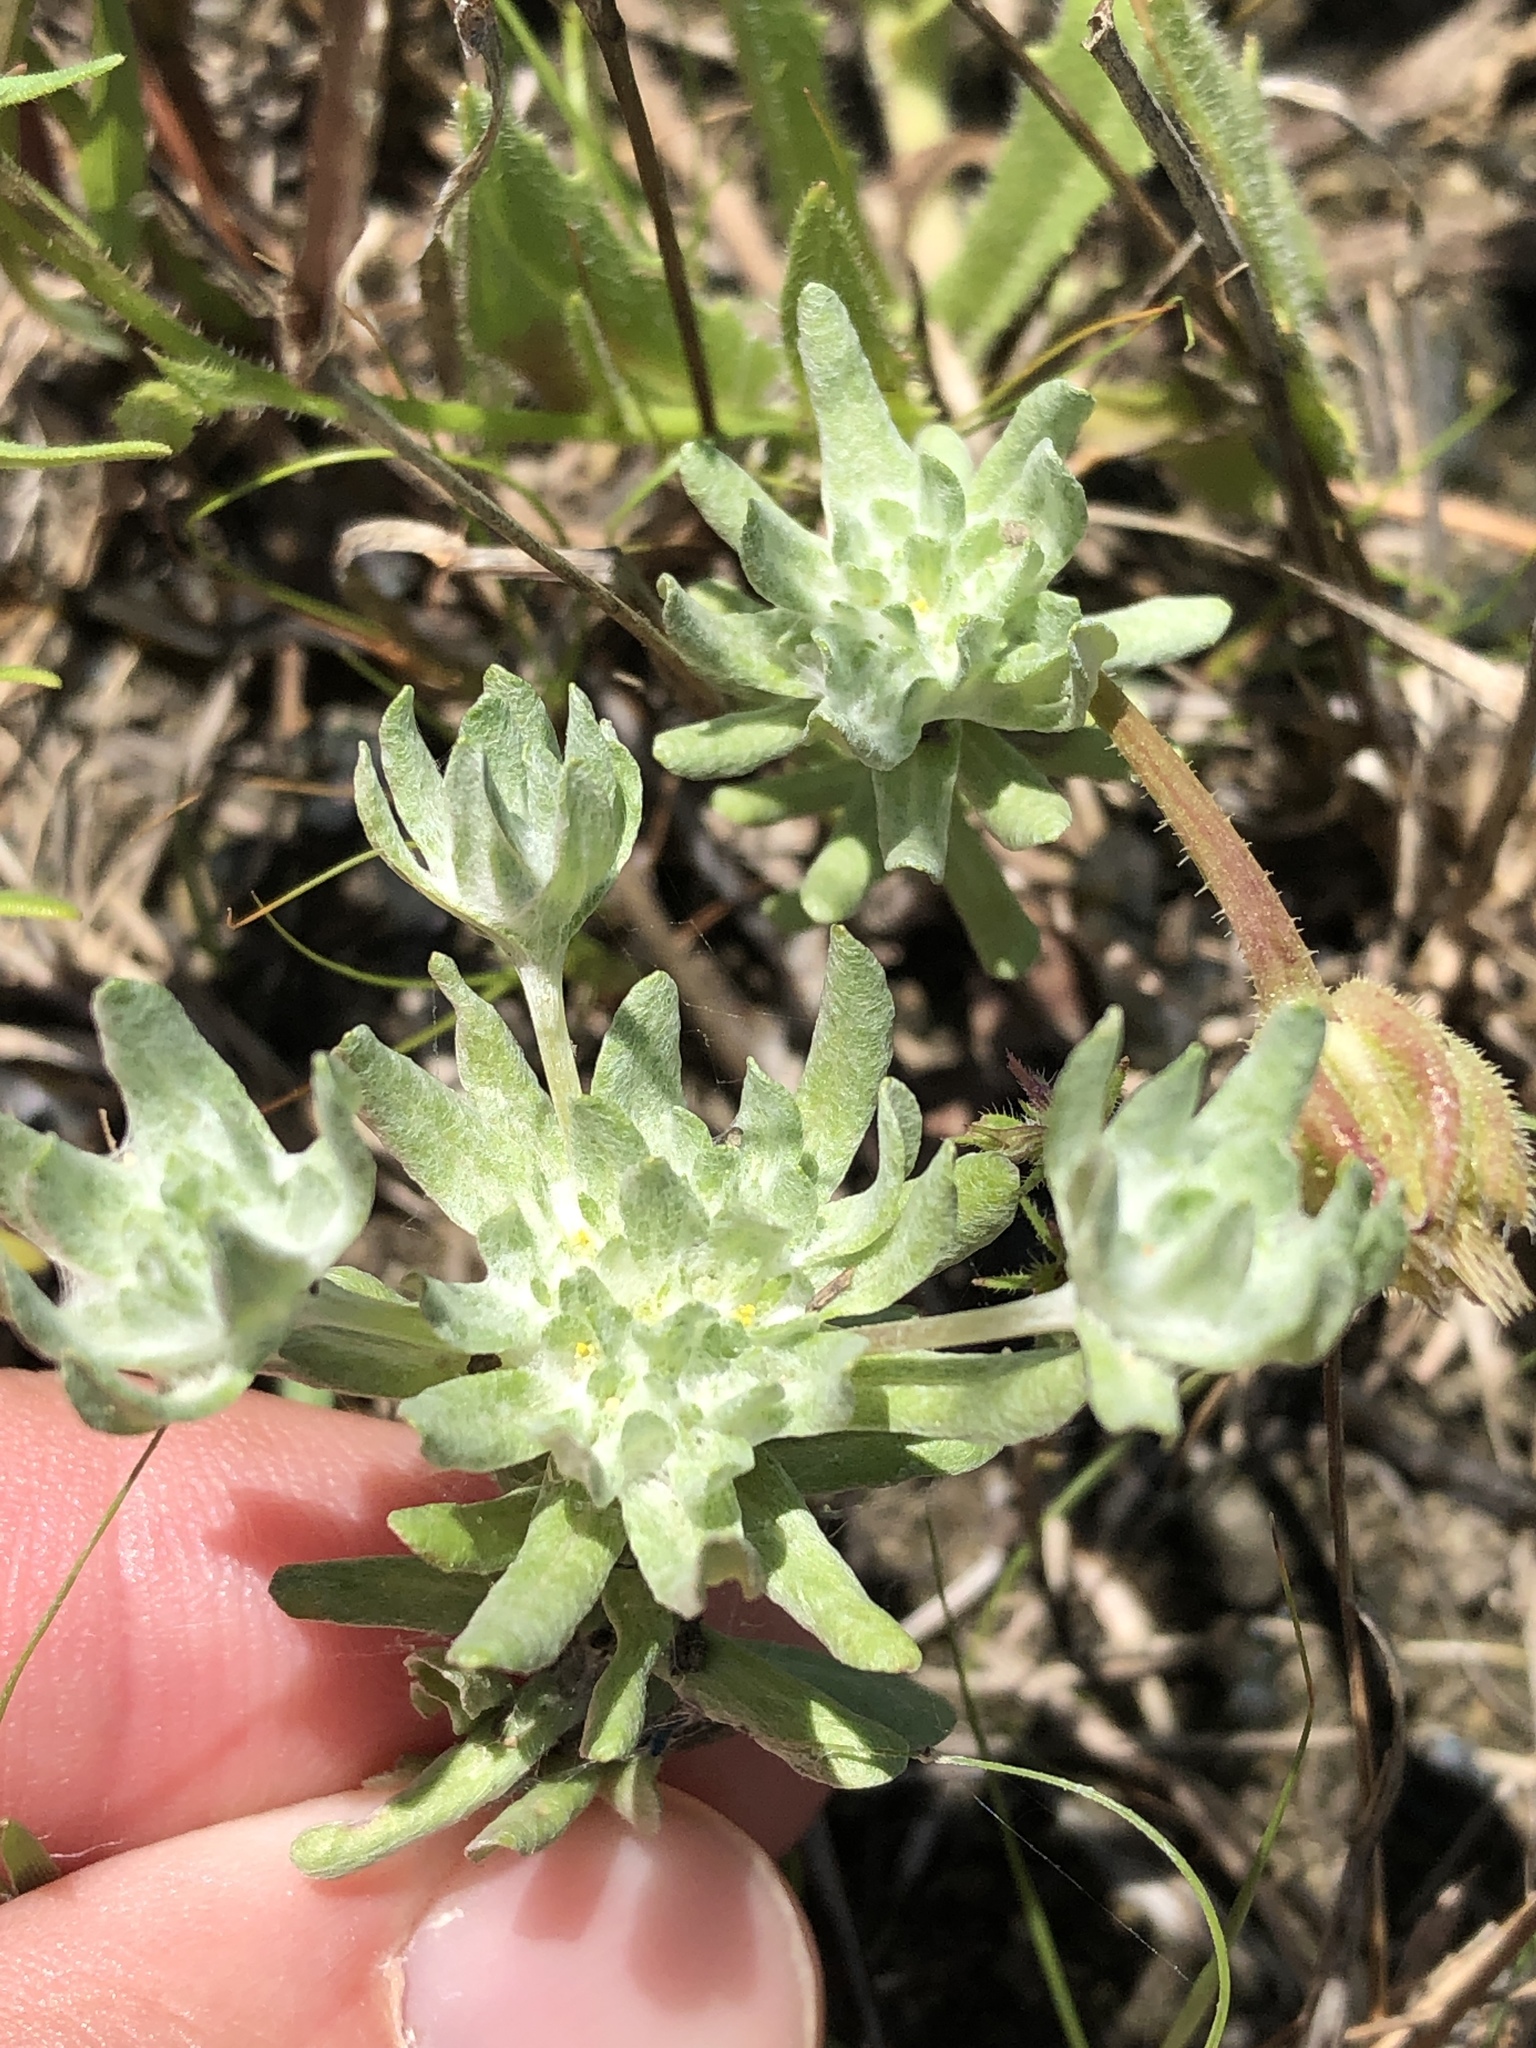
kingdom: Plantae
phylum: Tracheophyta
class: Magnoliopsida
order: Asterales
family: Asteraceae
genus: Diaperia
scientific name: Diaperia prolifera
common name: Big-head rabbit-tobacco
